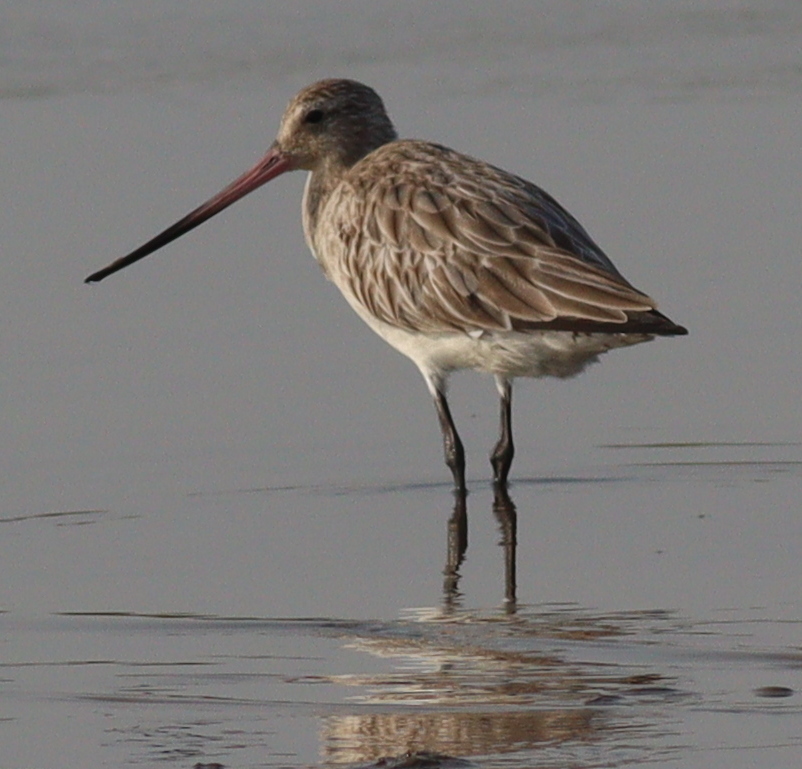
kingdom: Animalia
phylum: Chordata
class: Aves
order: Charadriiformes
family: Scolopacidae
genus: Limosa
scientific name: Limosa lapponica
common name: Bar-tailed godwit
